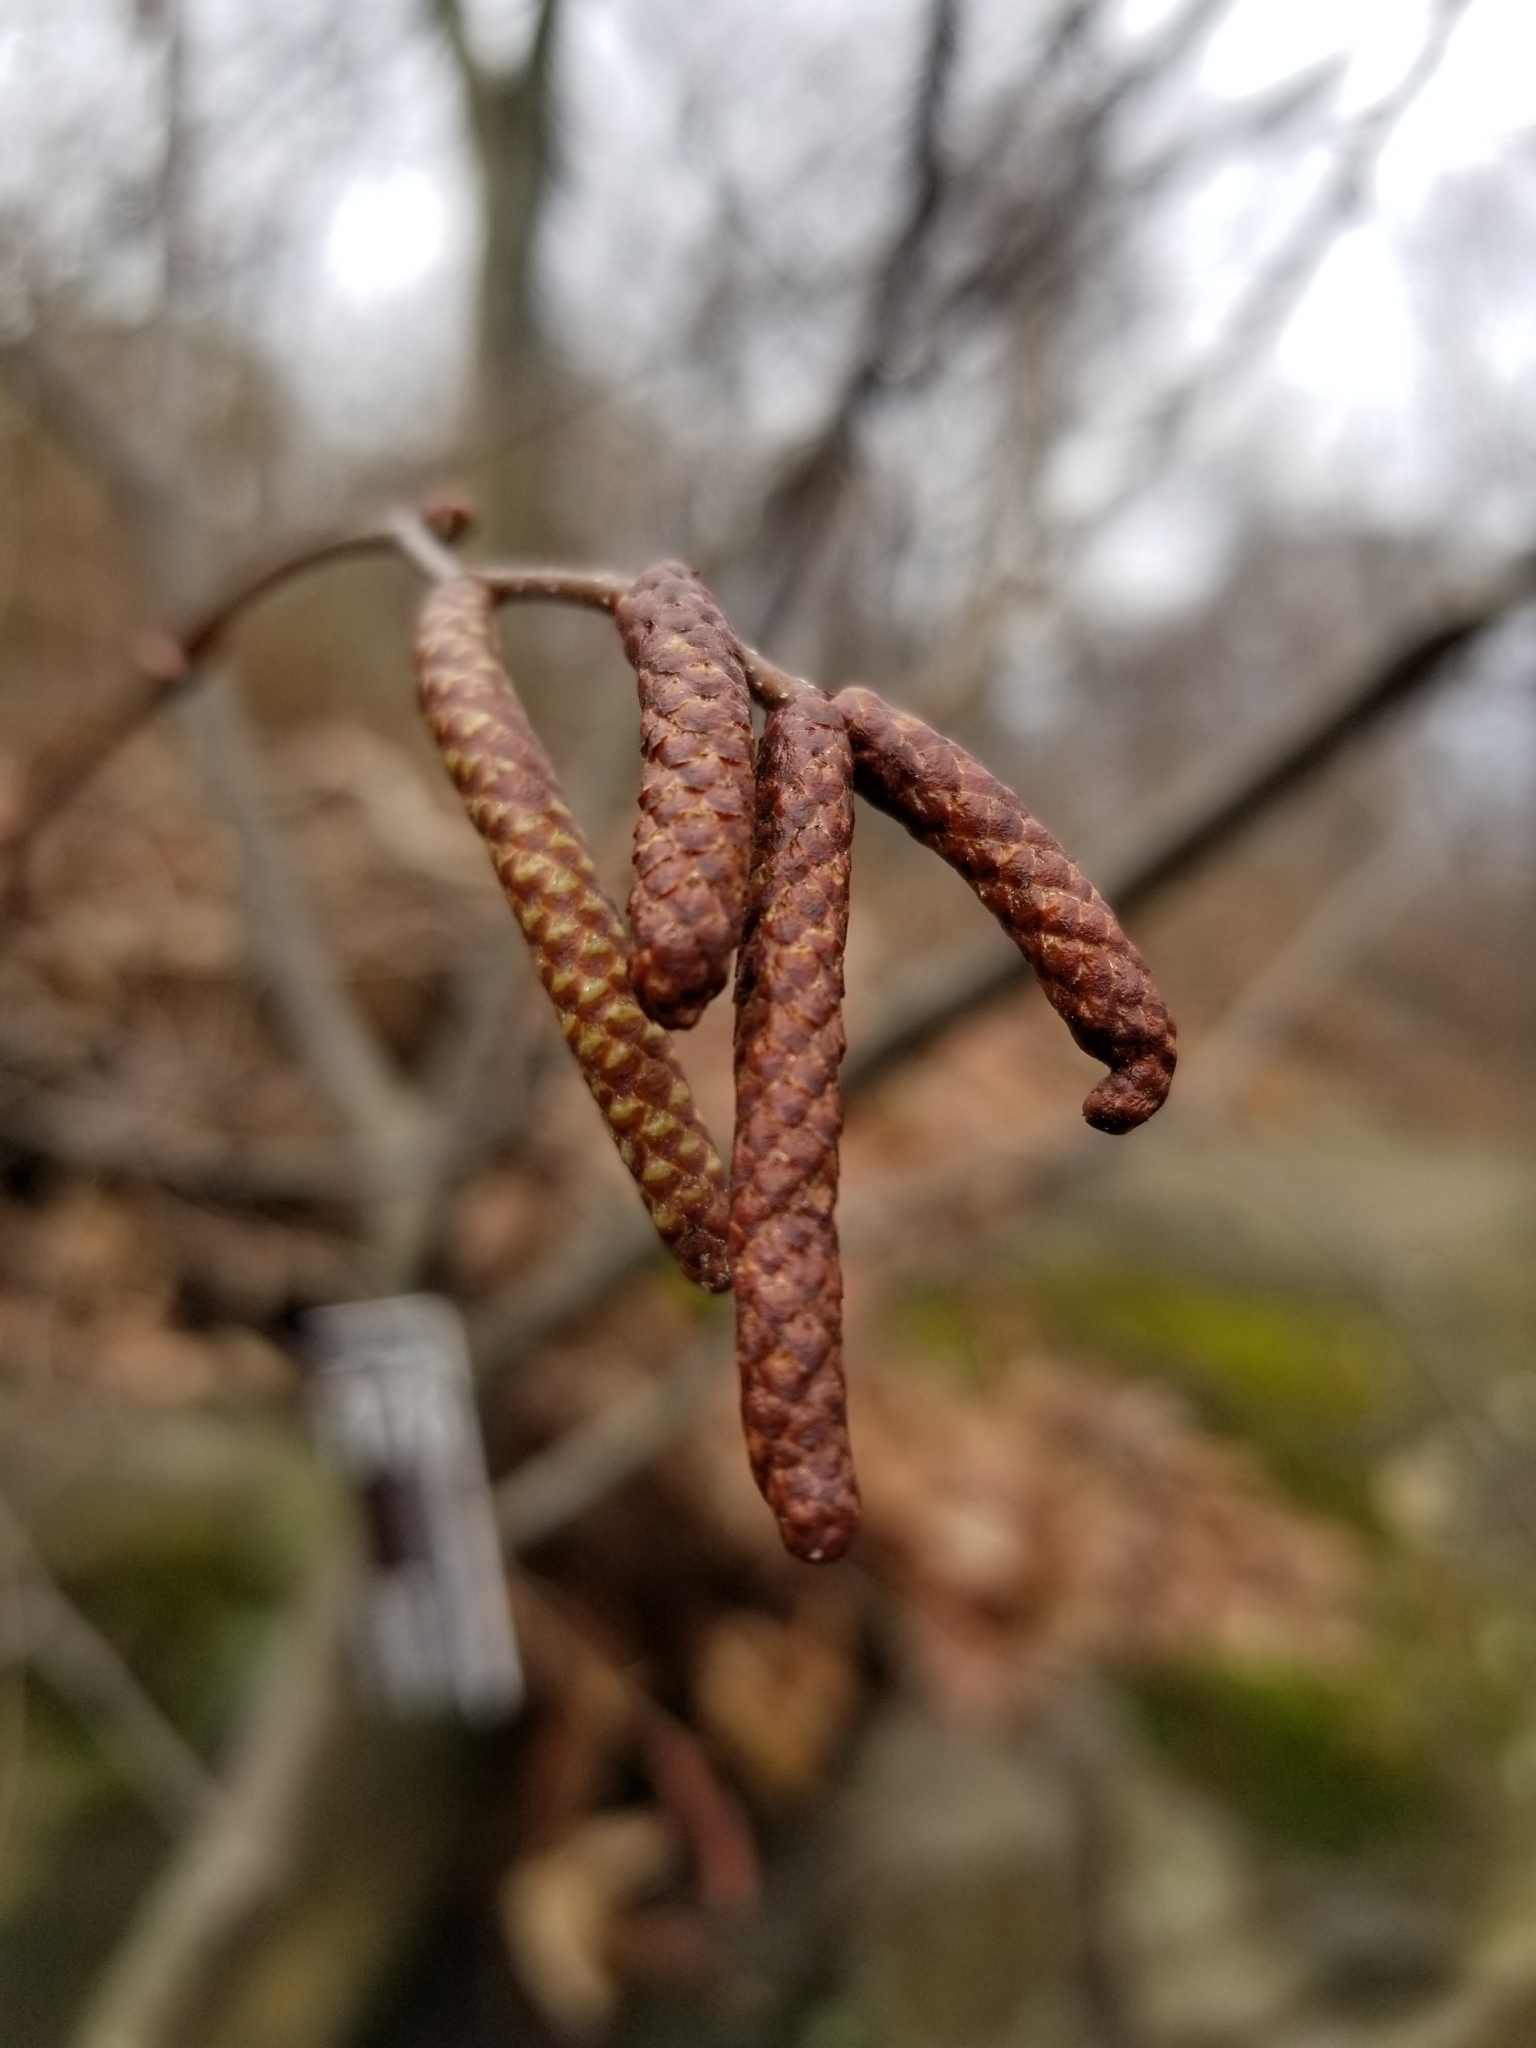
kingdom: Plantae
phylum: Tracheophyta
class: Magnoliopsida
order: Fagales
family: Betulaceae
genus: Betula
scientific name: Betula lenta
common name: Black birch
